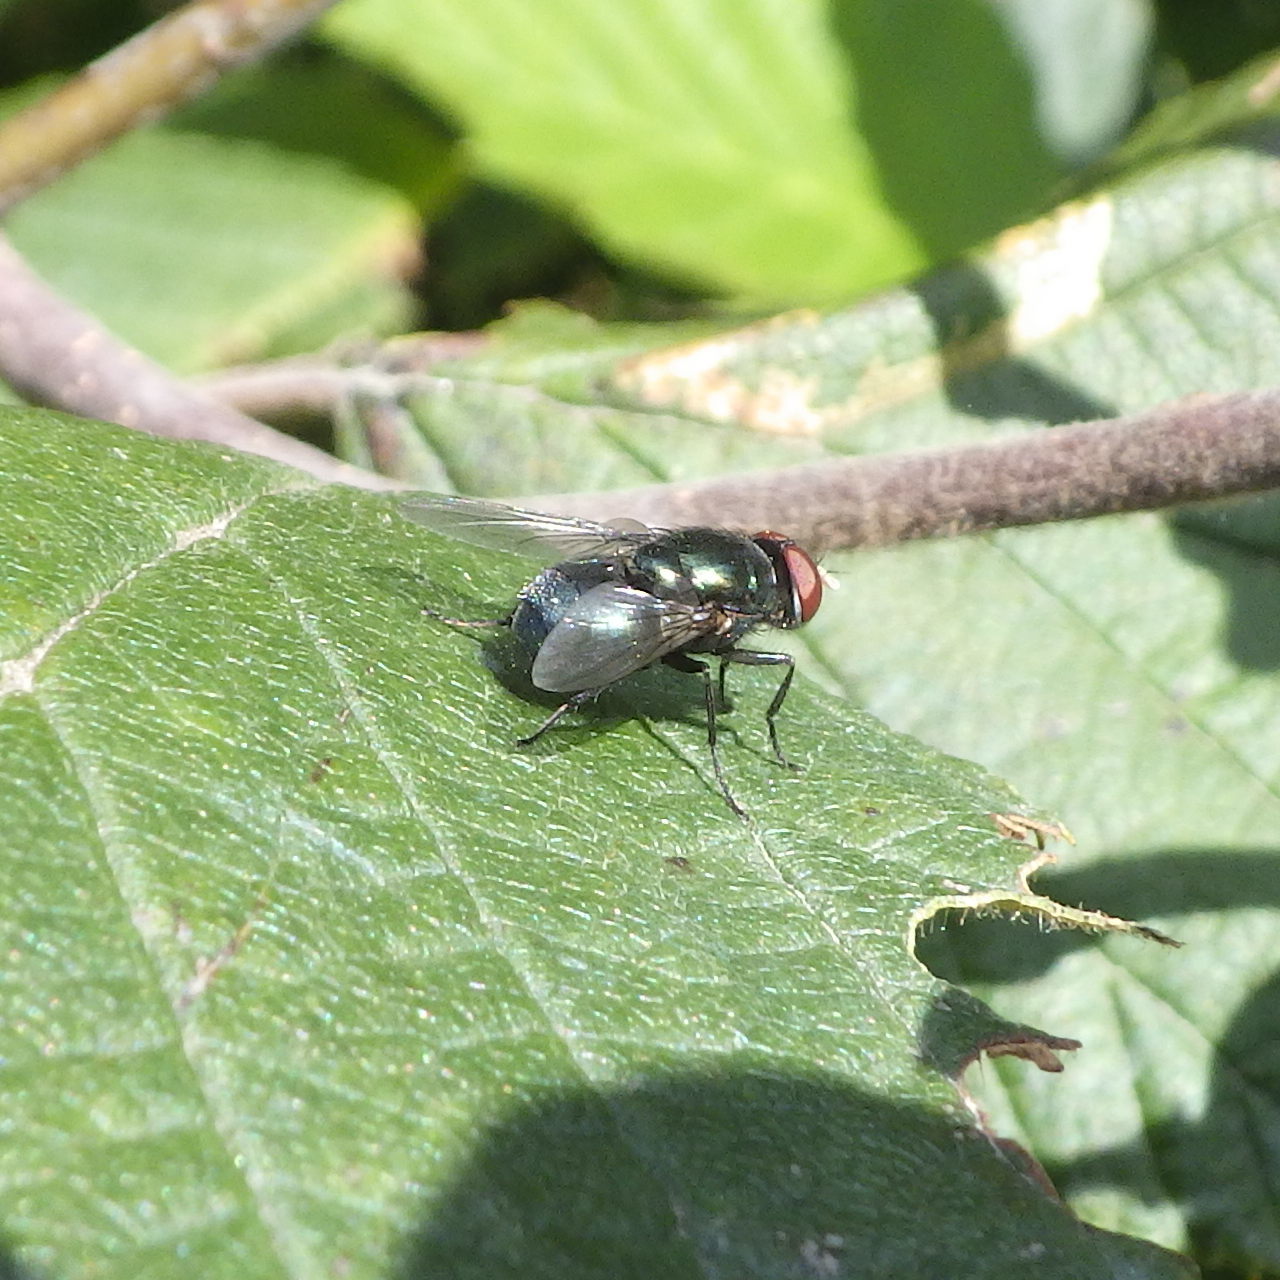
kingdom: Animalia
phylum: Arthropoda
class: Insecta
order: Diptera
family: Calliphoridae
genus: Phormia
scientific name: Phormia regina
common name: Black blow fly
